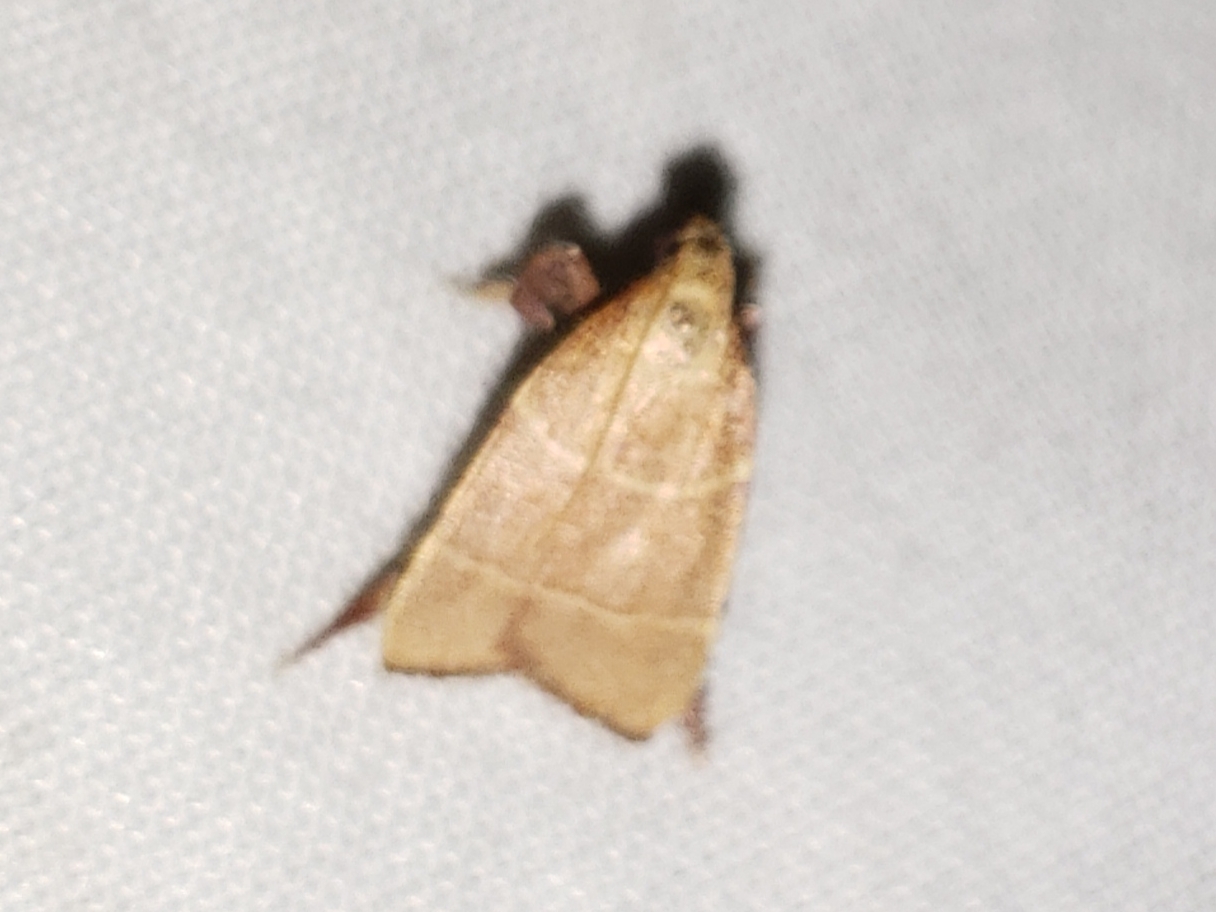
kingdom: Animalia
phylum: Arthropoda
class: Insecta
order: Lepidoptera
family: Pyralidae
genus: Parachma
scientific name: Parachma ochracealis
